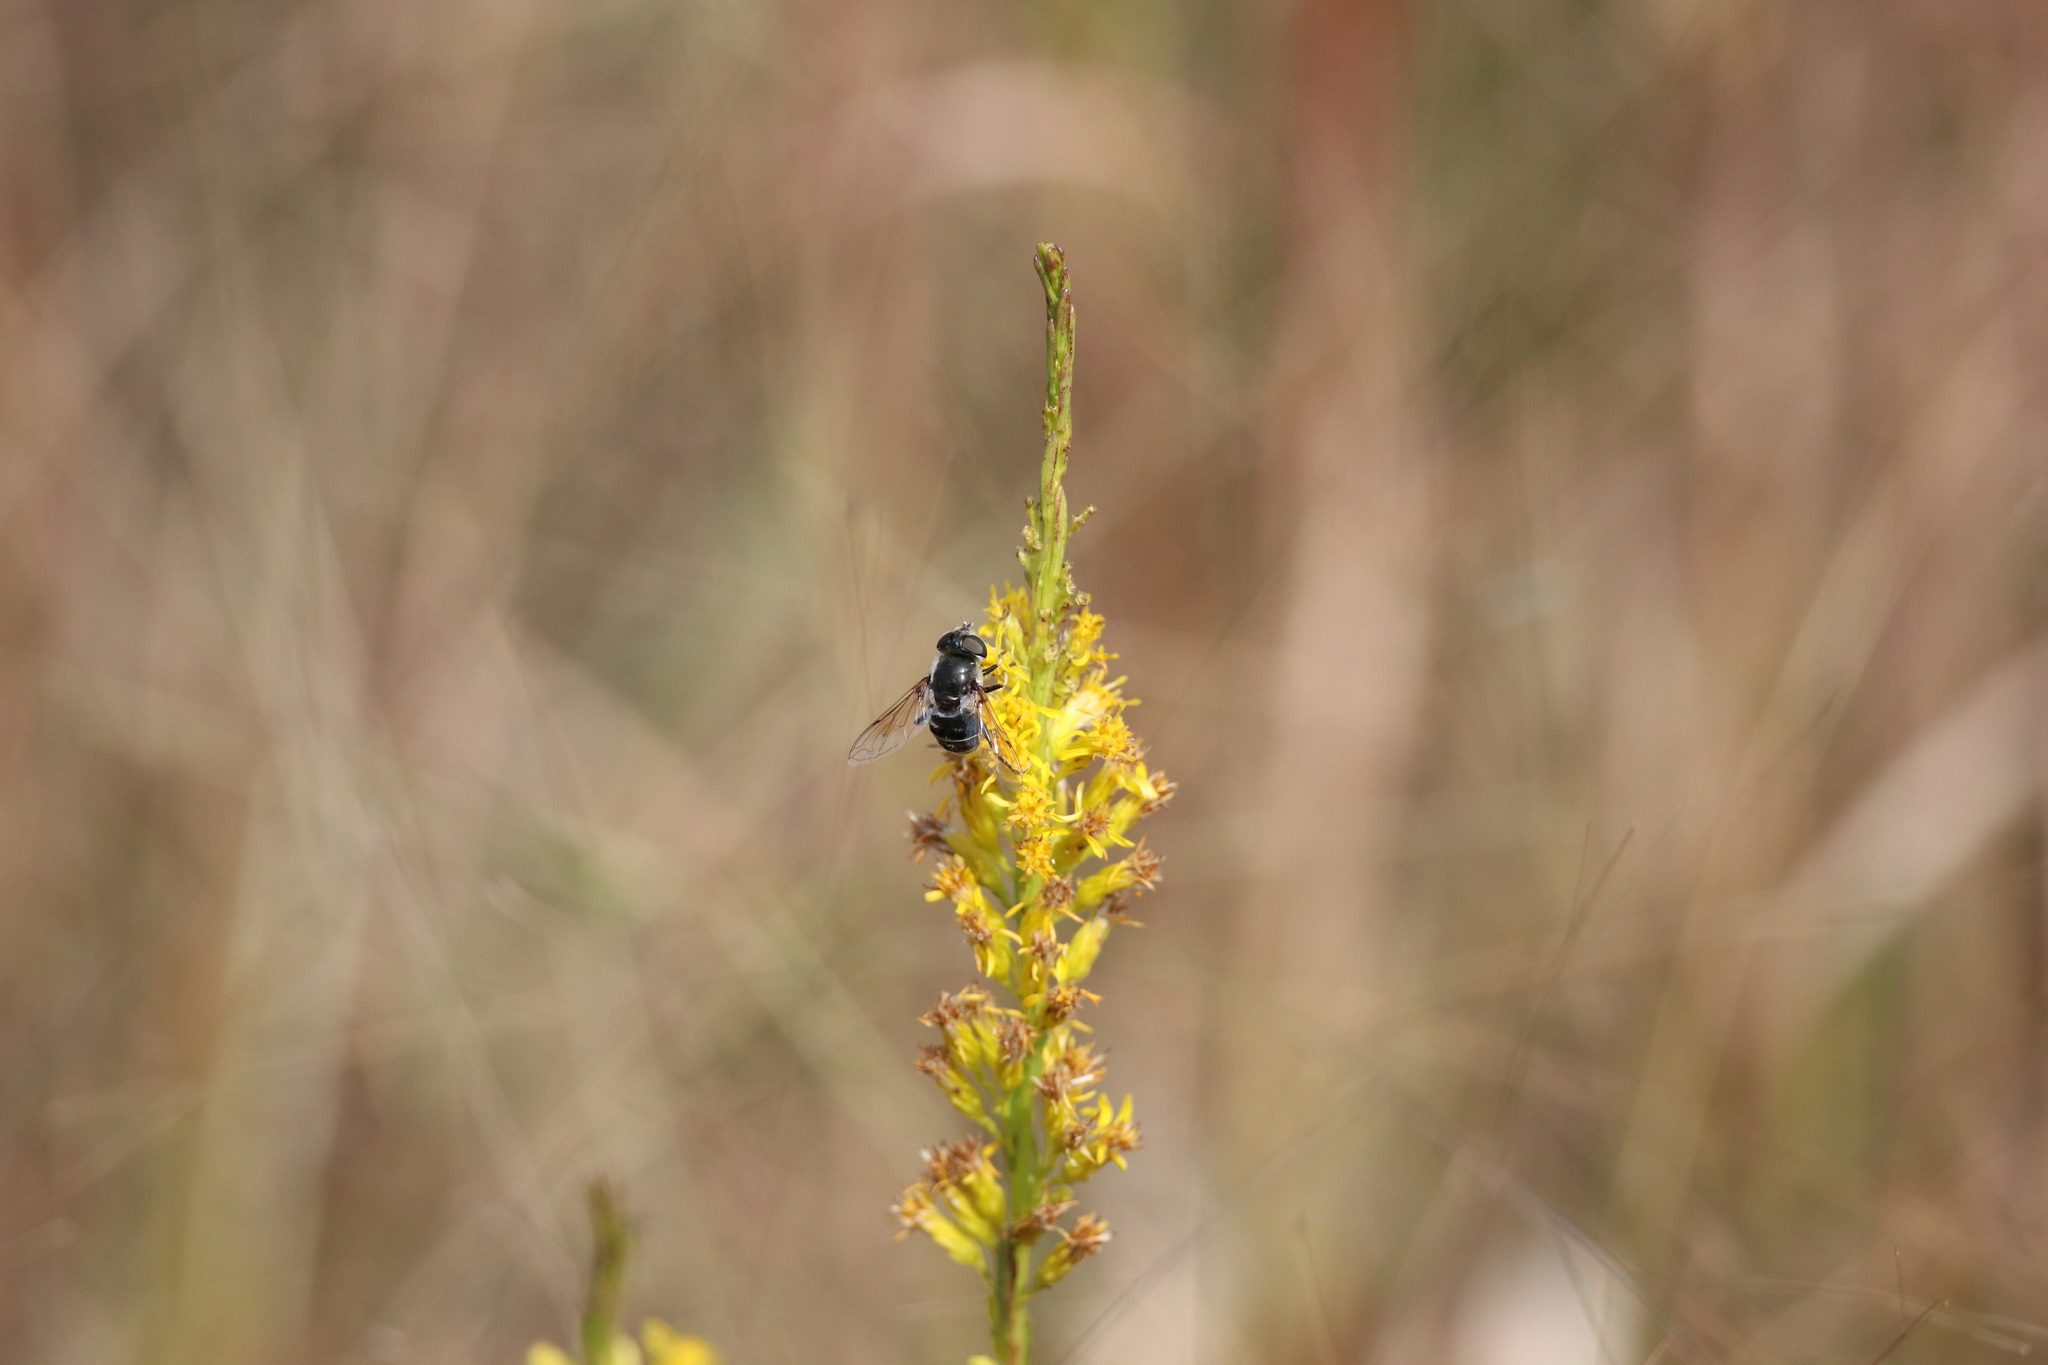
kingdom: Animalia
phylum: Arthropoda
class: Insecta
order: Diptera
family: Syrphidae
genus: Eristalis
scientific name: Eristalis dimidiata
